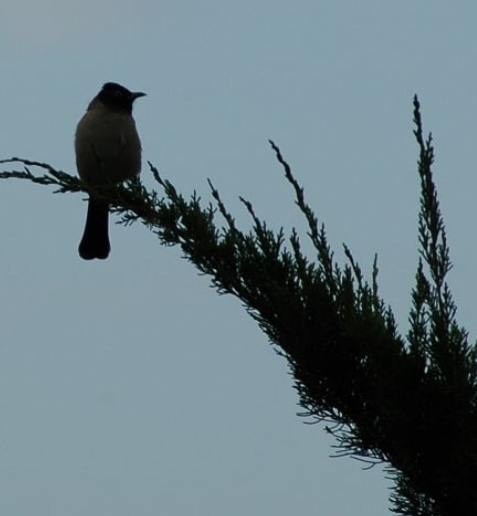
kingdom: Animalia
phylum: Chordata
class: Aves
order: Passeriformes
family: Pycnonotidae
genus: Pycnonotus
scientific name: Pycnonotus xanthopygos
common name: White-spectacled bulbul
